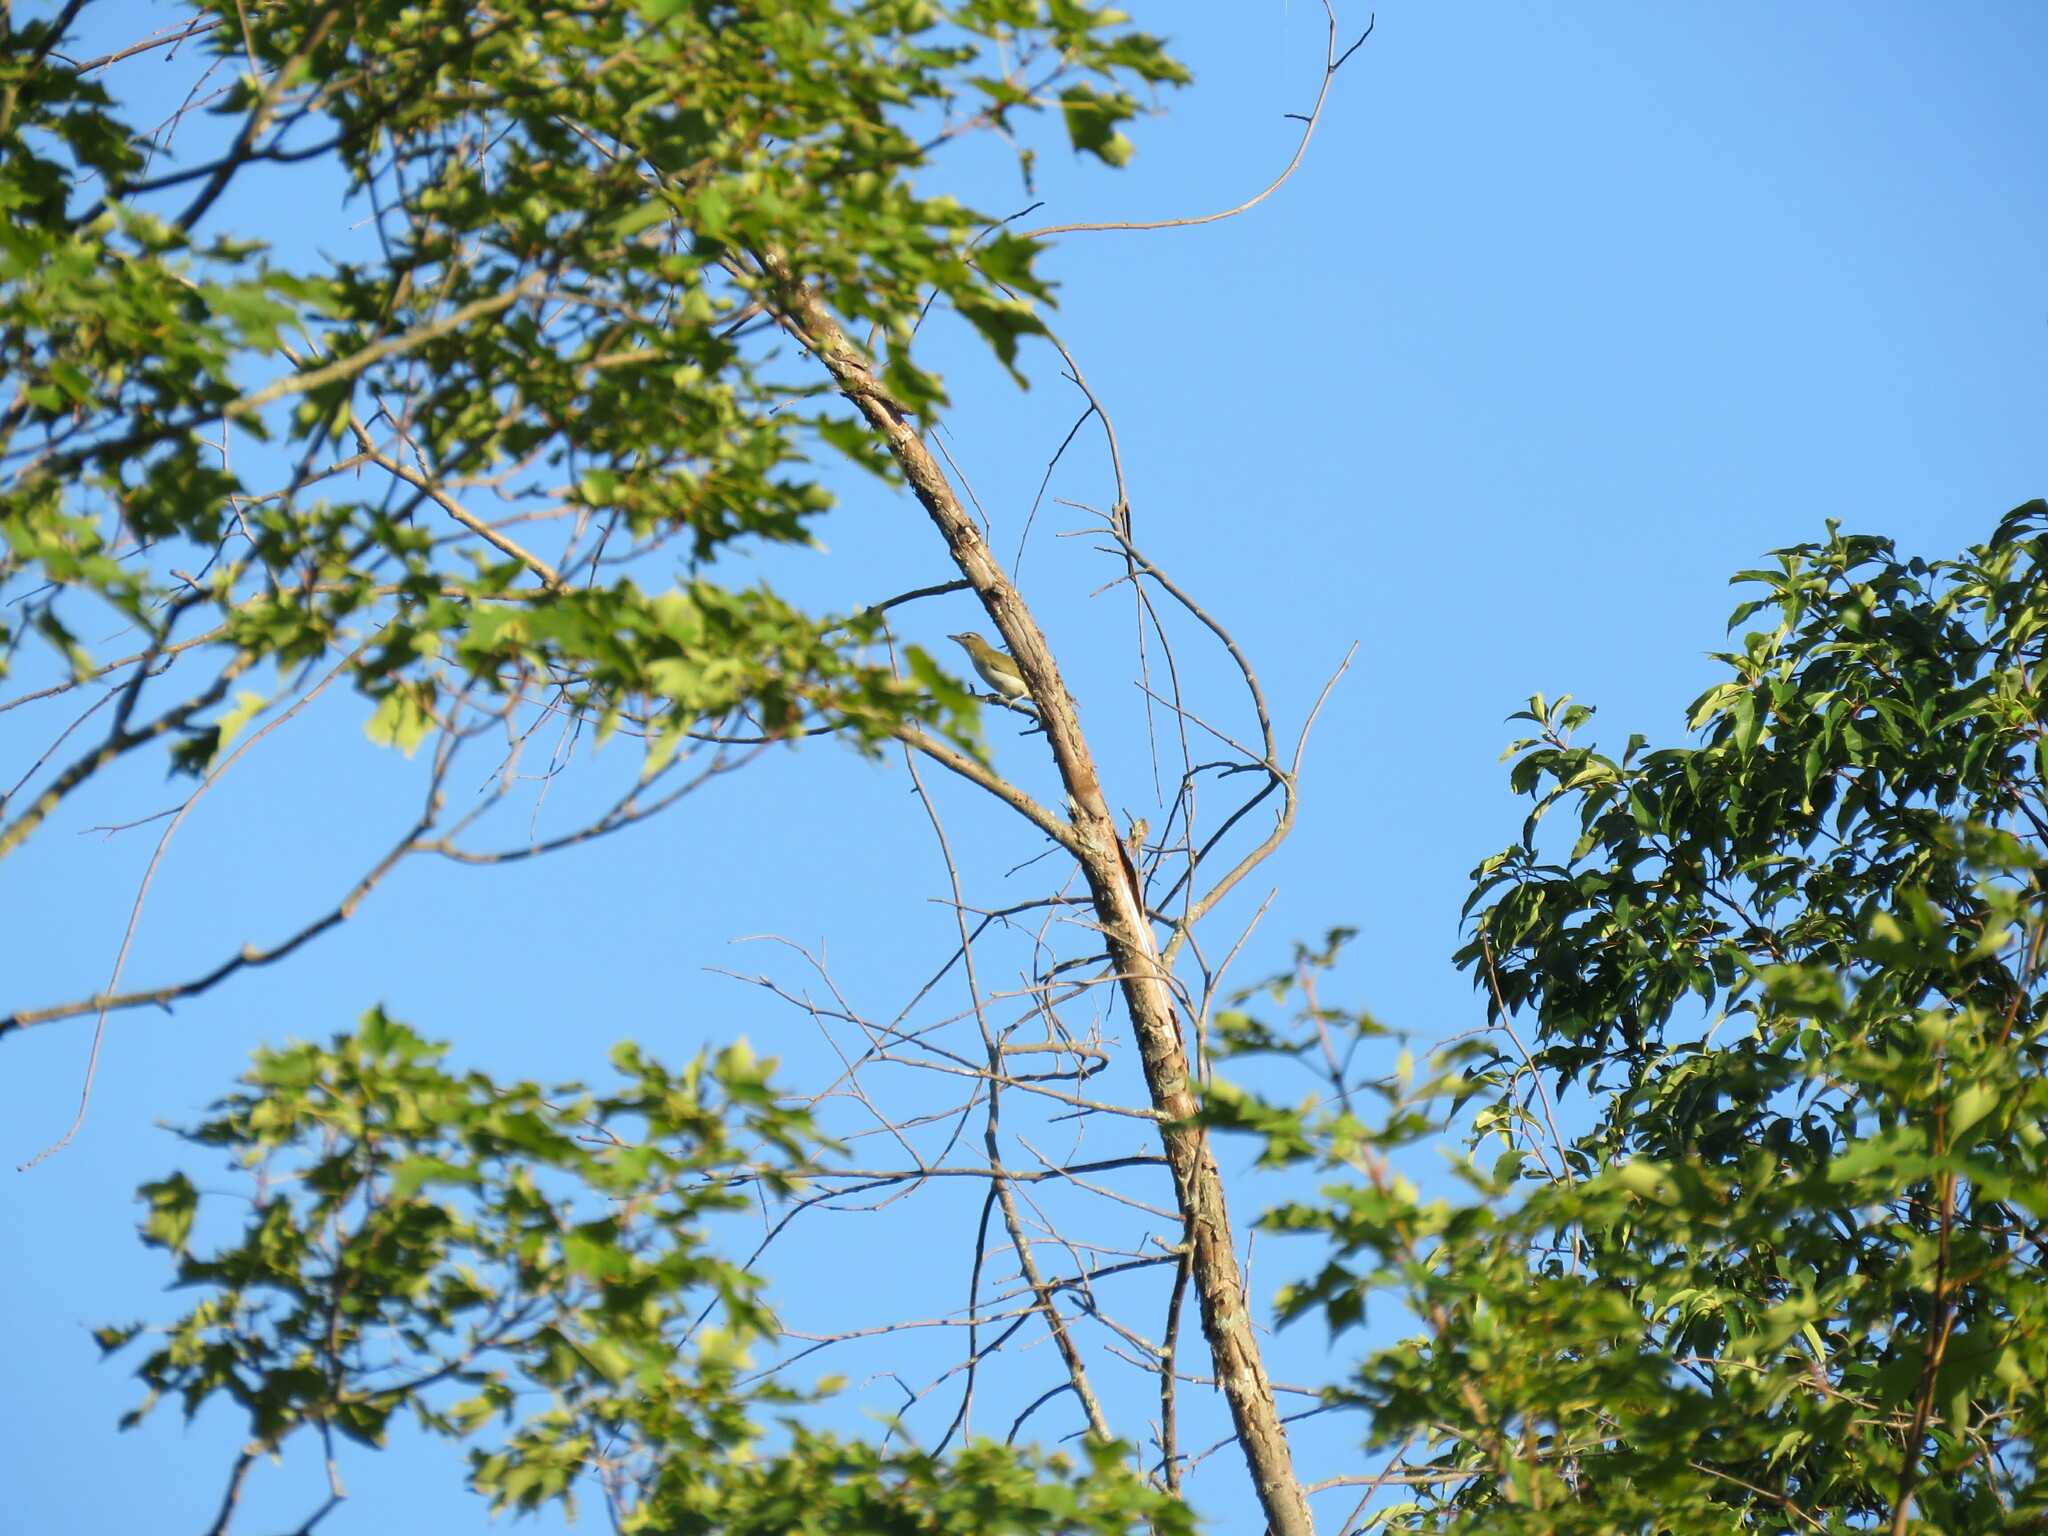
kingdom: Animalia
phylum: Chordata
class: Aves
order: Passeriformes
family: Vireonidae
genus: Vireo
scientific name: Vireo olivaceus
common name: Red-eyed vireo
